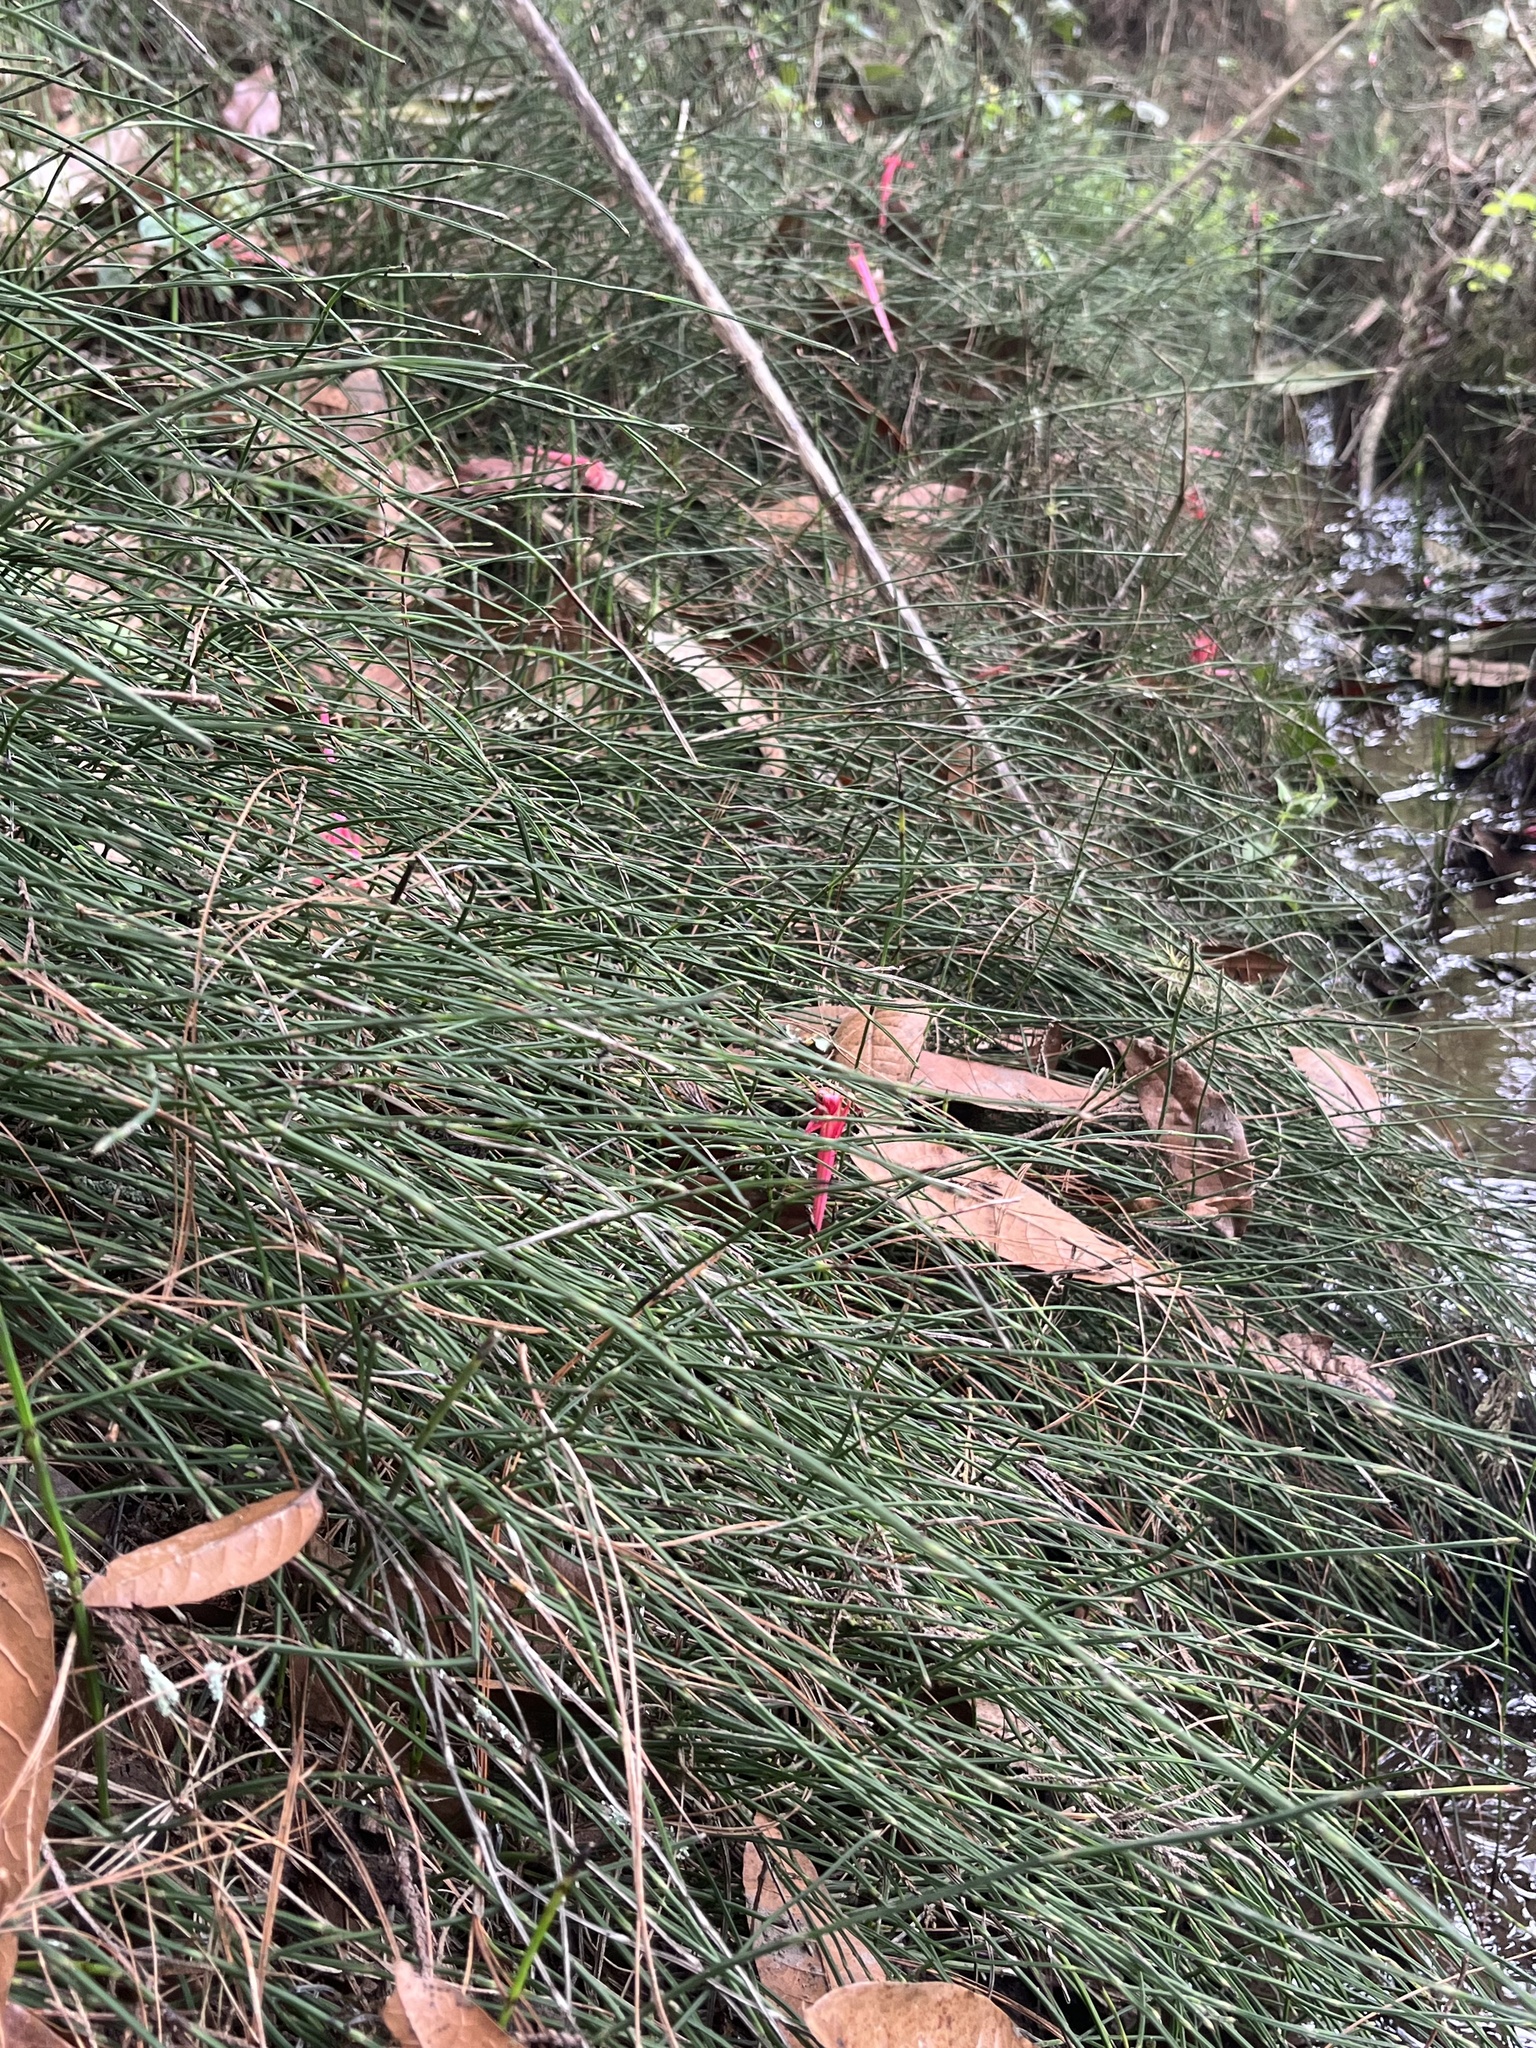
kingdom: Plantae
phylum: Tracheophyta
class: Polypodiopsida
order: Equisetales
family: Equisetaceae
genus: Equisetum
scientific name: Equisetum bogotense
